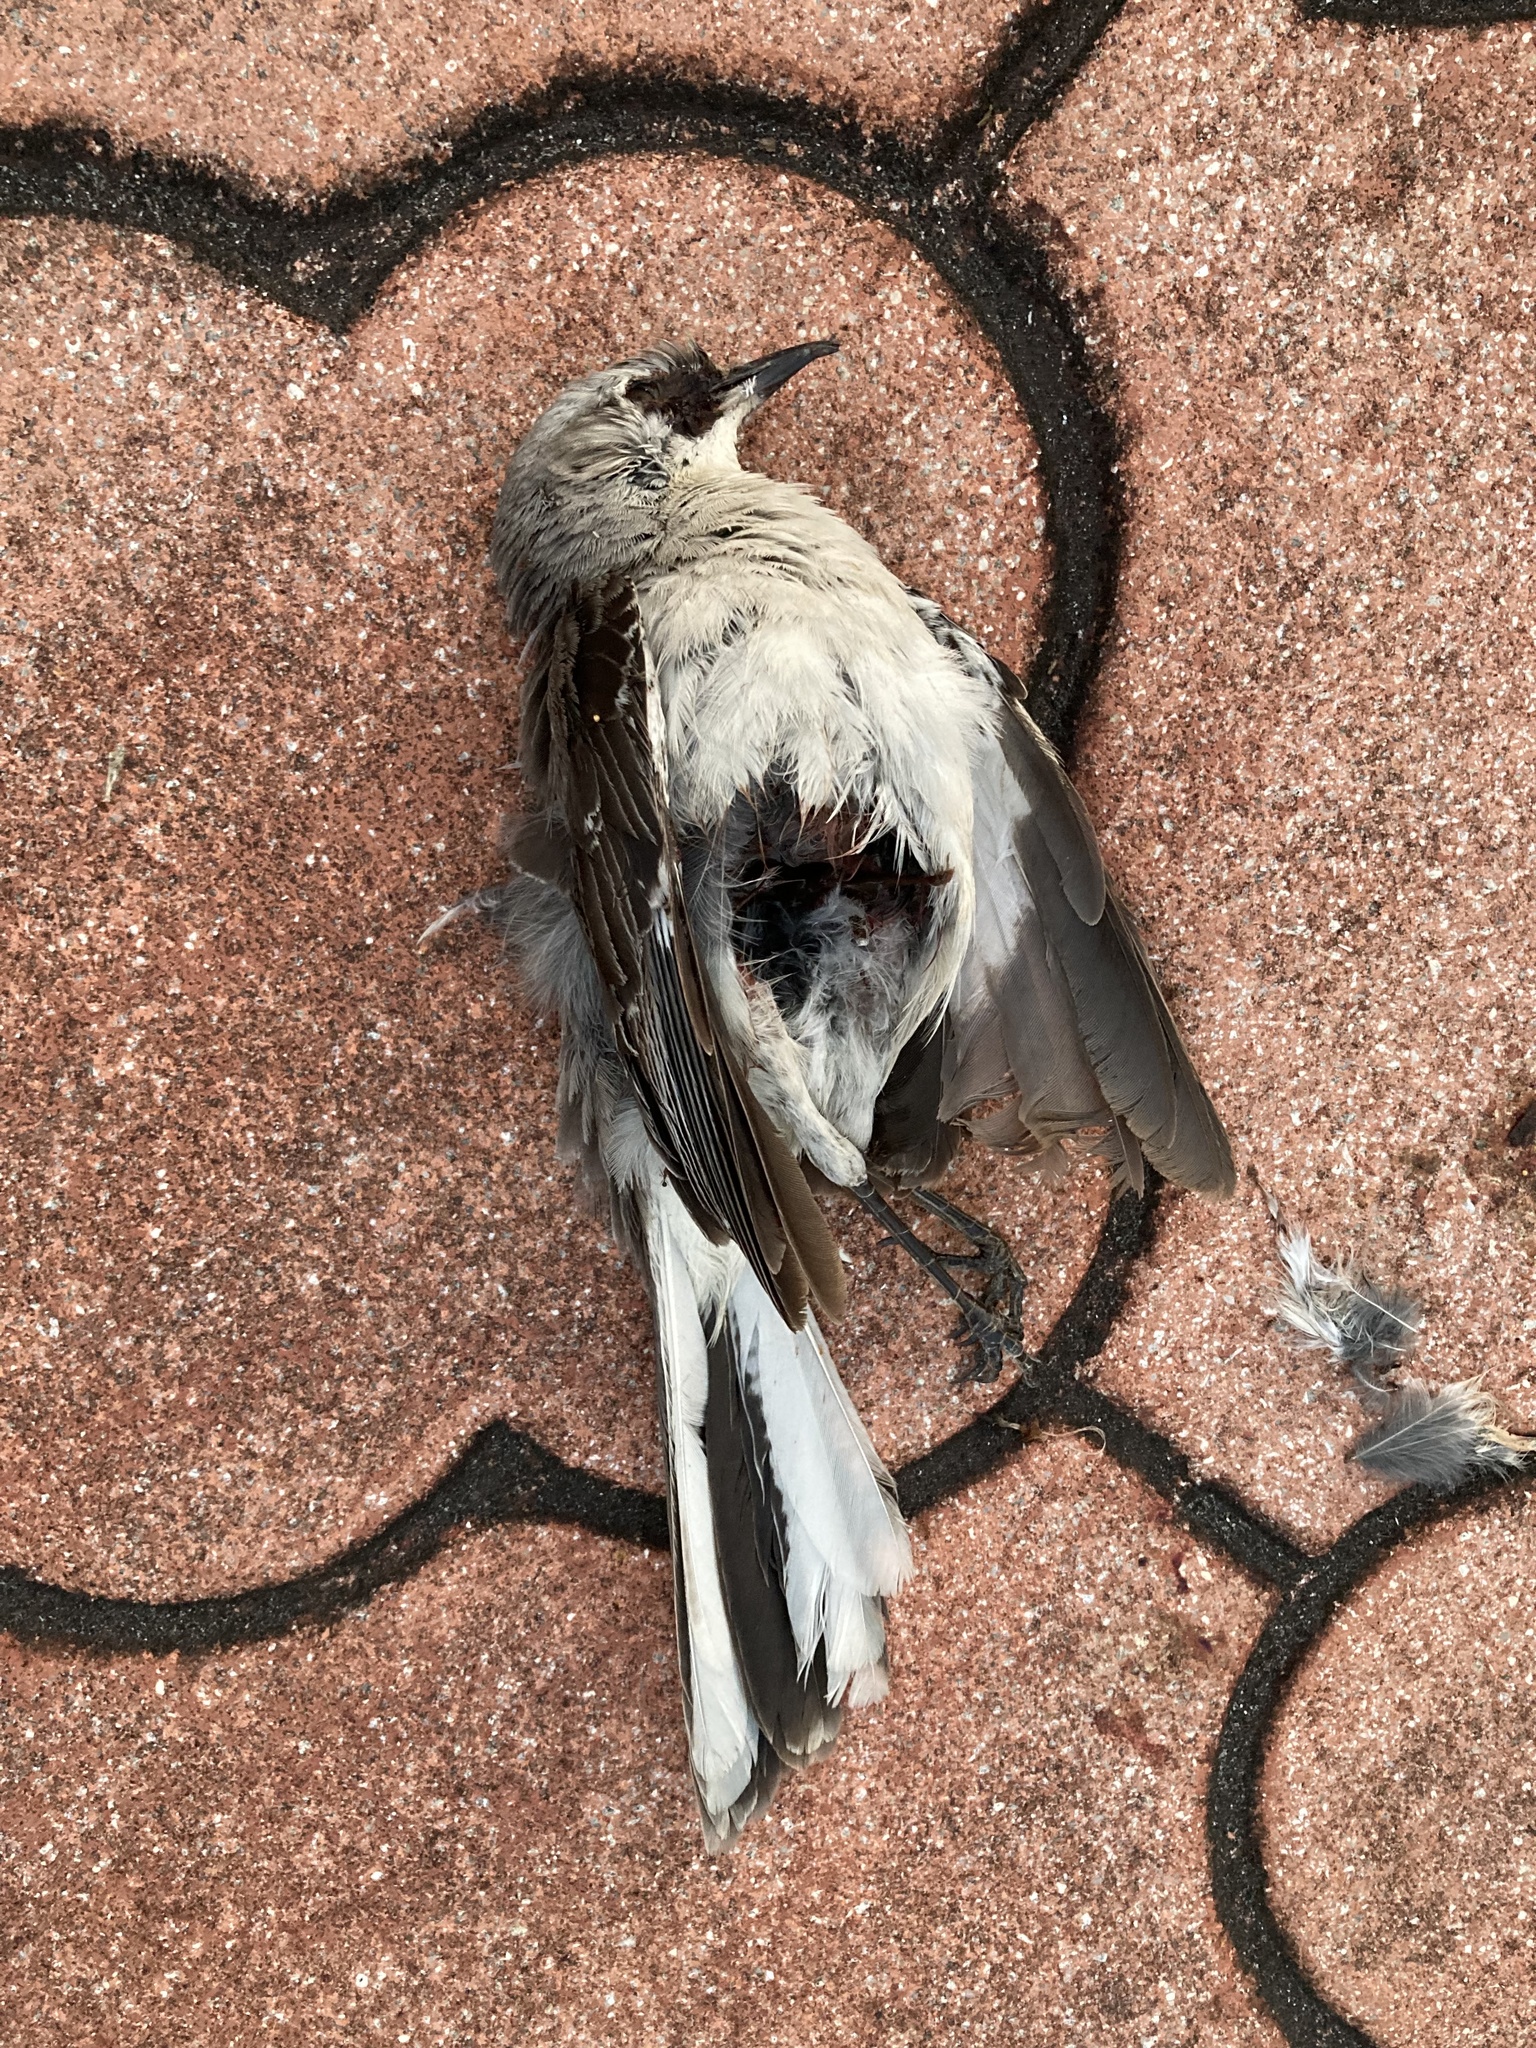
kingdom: Animalia
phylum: Chordata
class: Aves
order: Passeriformes
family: Mimidae
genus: Mimus
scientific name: Mimus polyglottos
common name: Northern mockingbird
